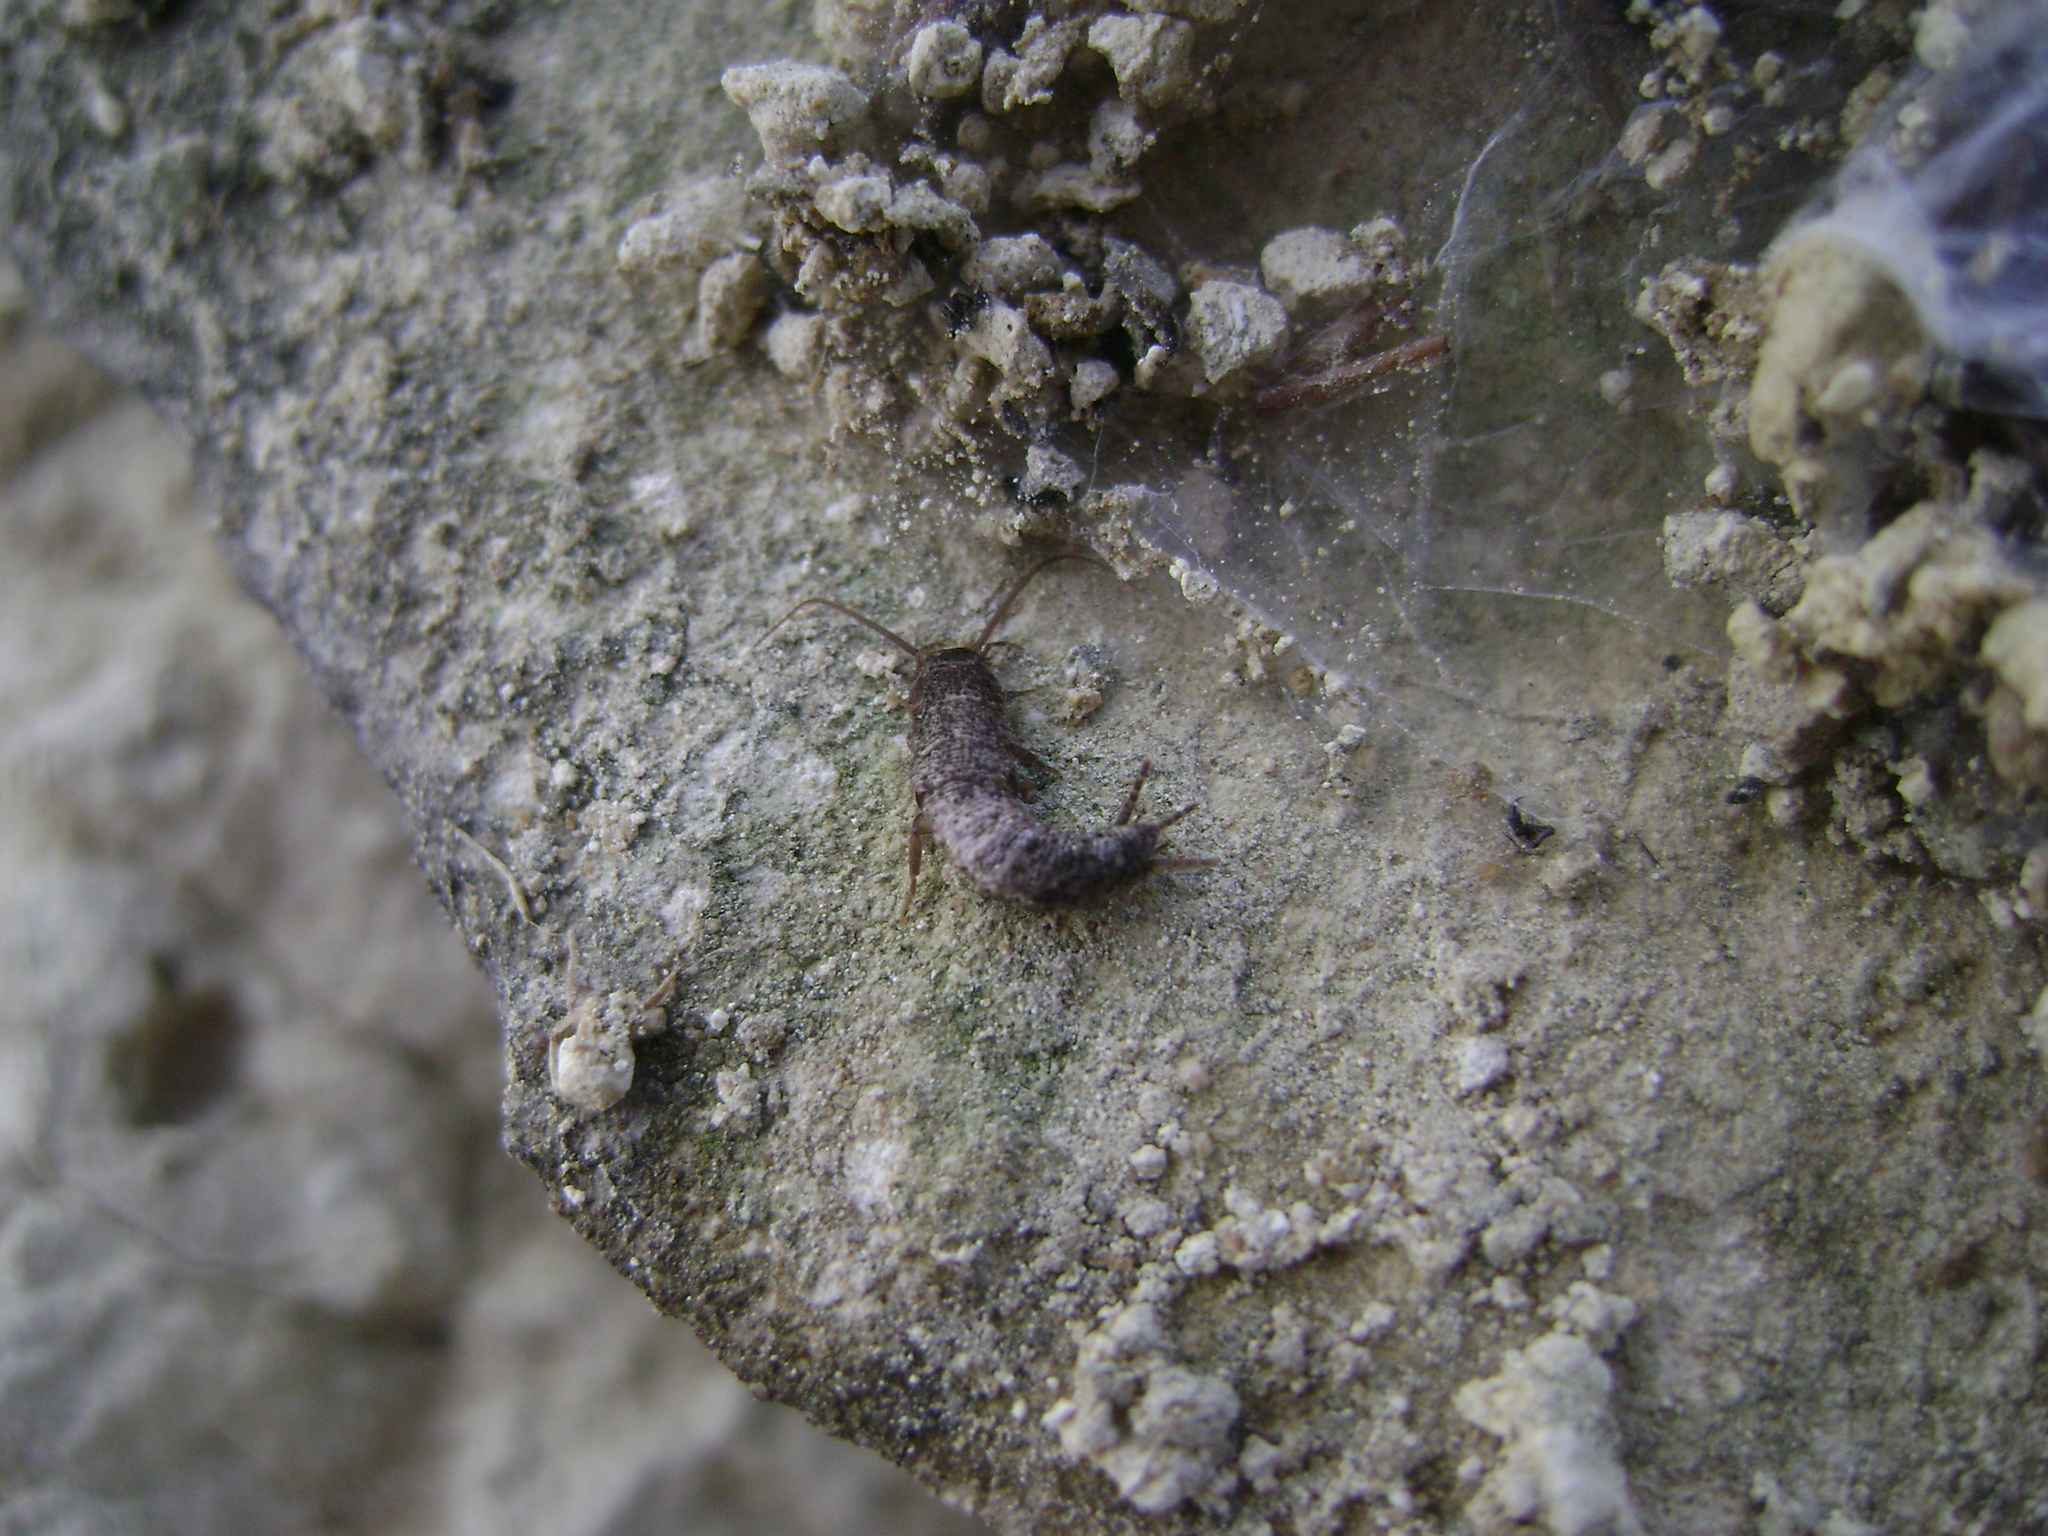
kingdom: Animalia
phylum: Arthropoda
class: Insecta
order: Zygentoma
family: Lepismatidae
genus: Allacrotelsa
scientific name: Allacrotelsa spinulata
